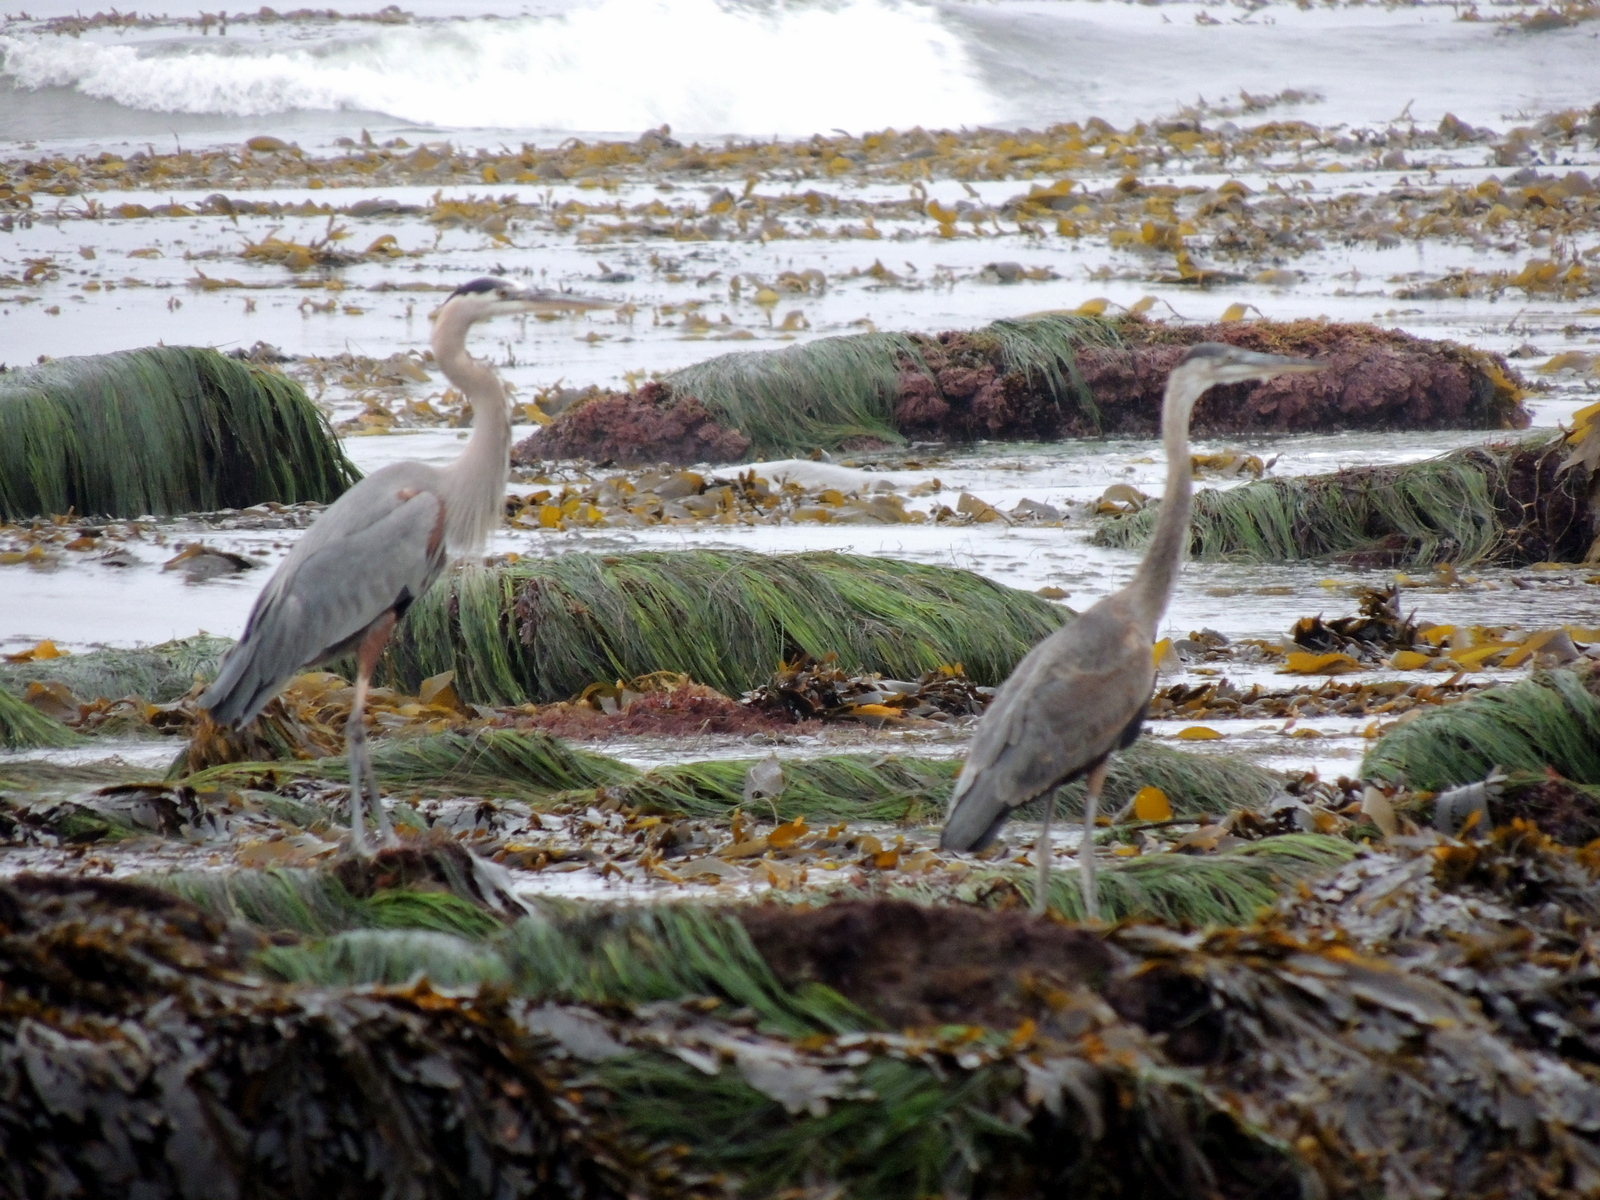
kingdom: Animalia
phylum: Chordata
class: Aves
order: Pelecaniformes
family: Ardeidae
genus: Ardea
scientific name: Ardea herodias
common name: Great blue heron
